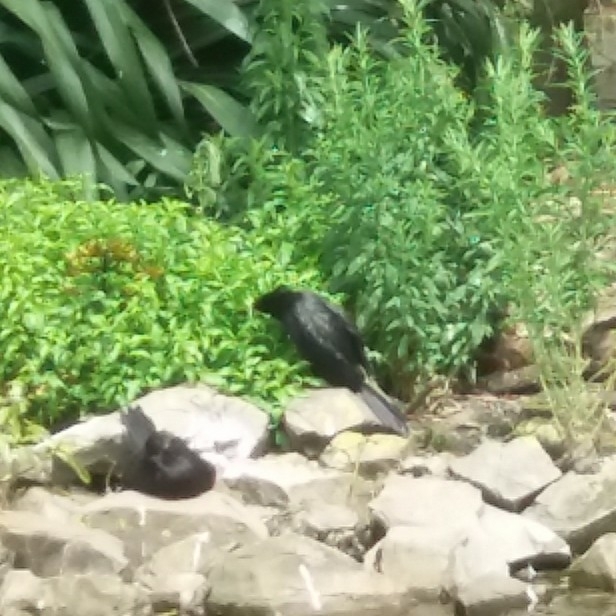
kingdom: Animalia
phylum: Chordata
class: Aves
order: Suliformes
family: Phalacrocoracidae
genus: Microcarbo
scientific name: Microcarbo melanoleucos
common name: Little pied cormorant
